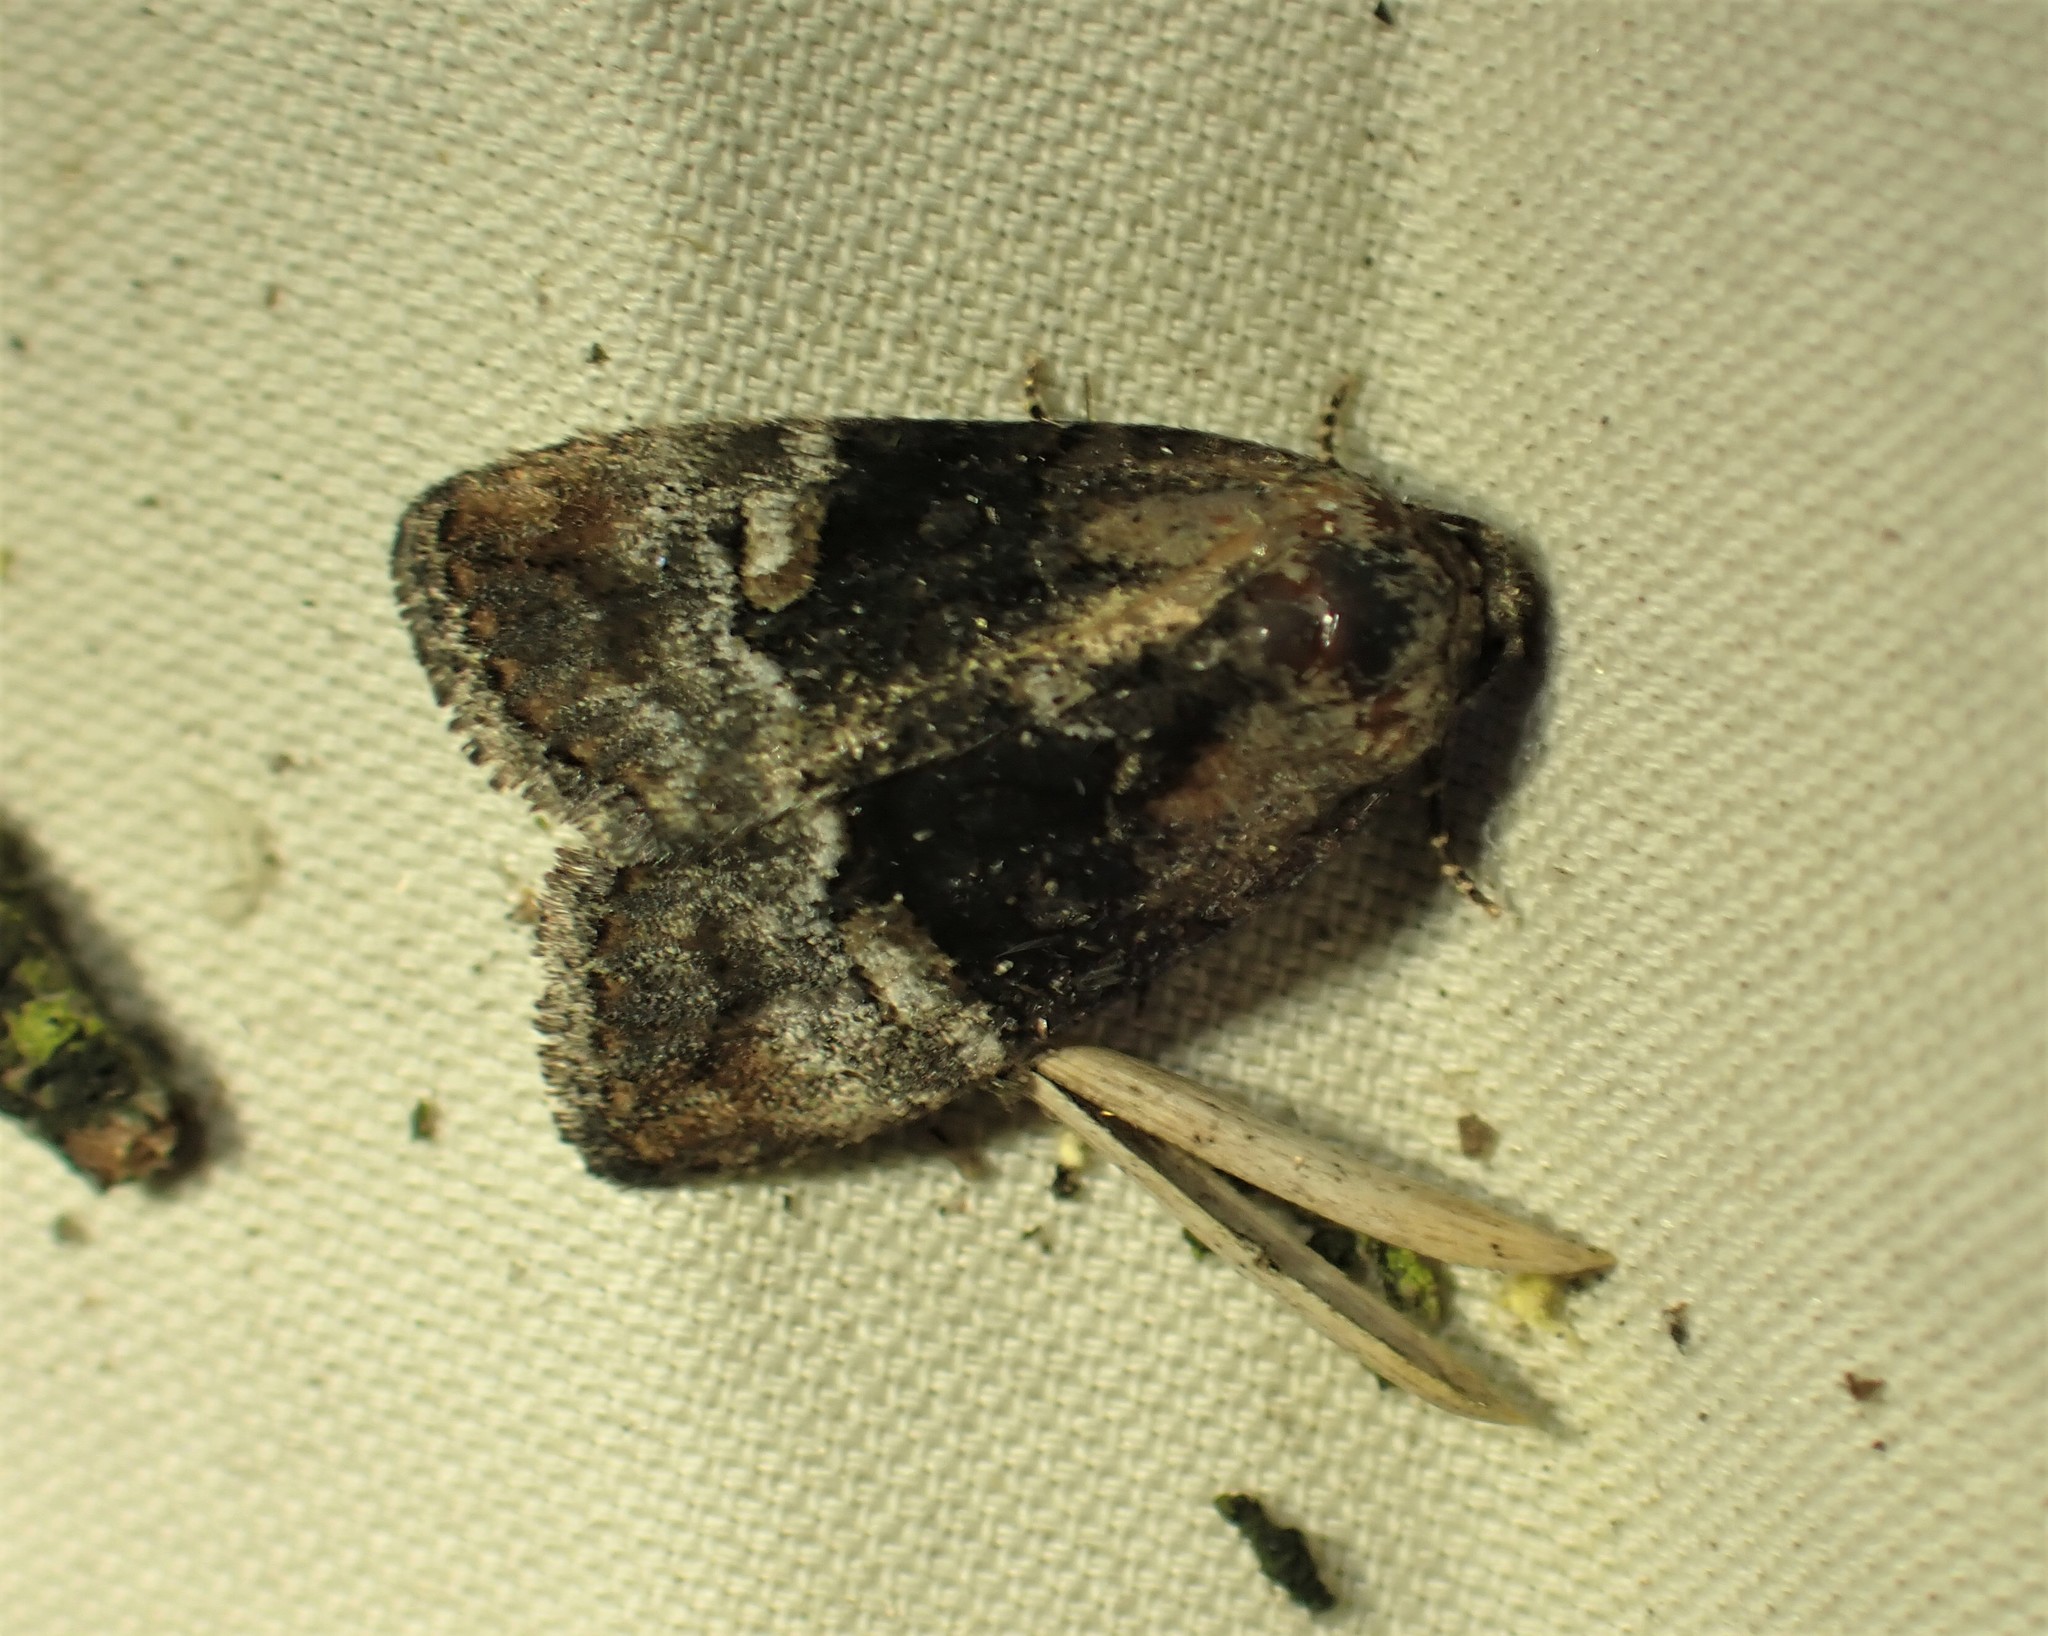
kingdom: Animalia
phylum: Arthropoda
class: Insecta
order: Lepidoptera
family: Noctuidae
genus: Elaphria
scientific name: Elaphria georgei
